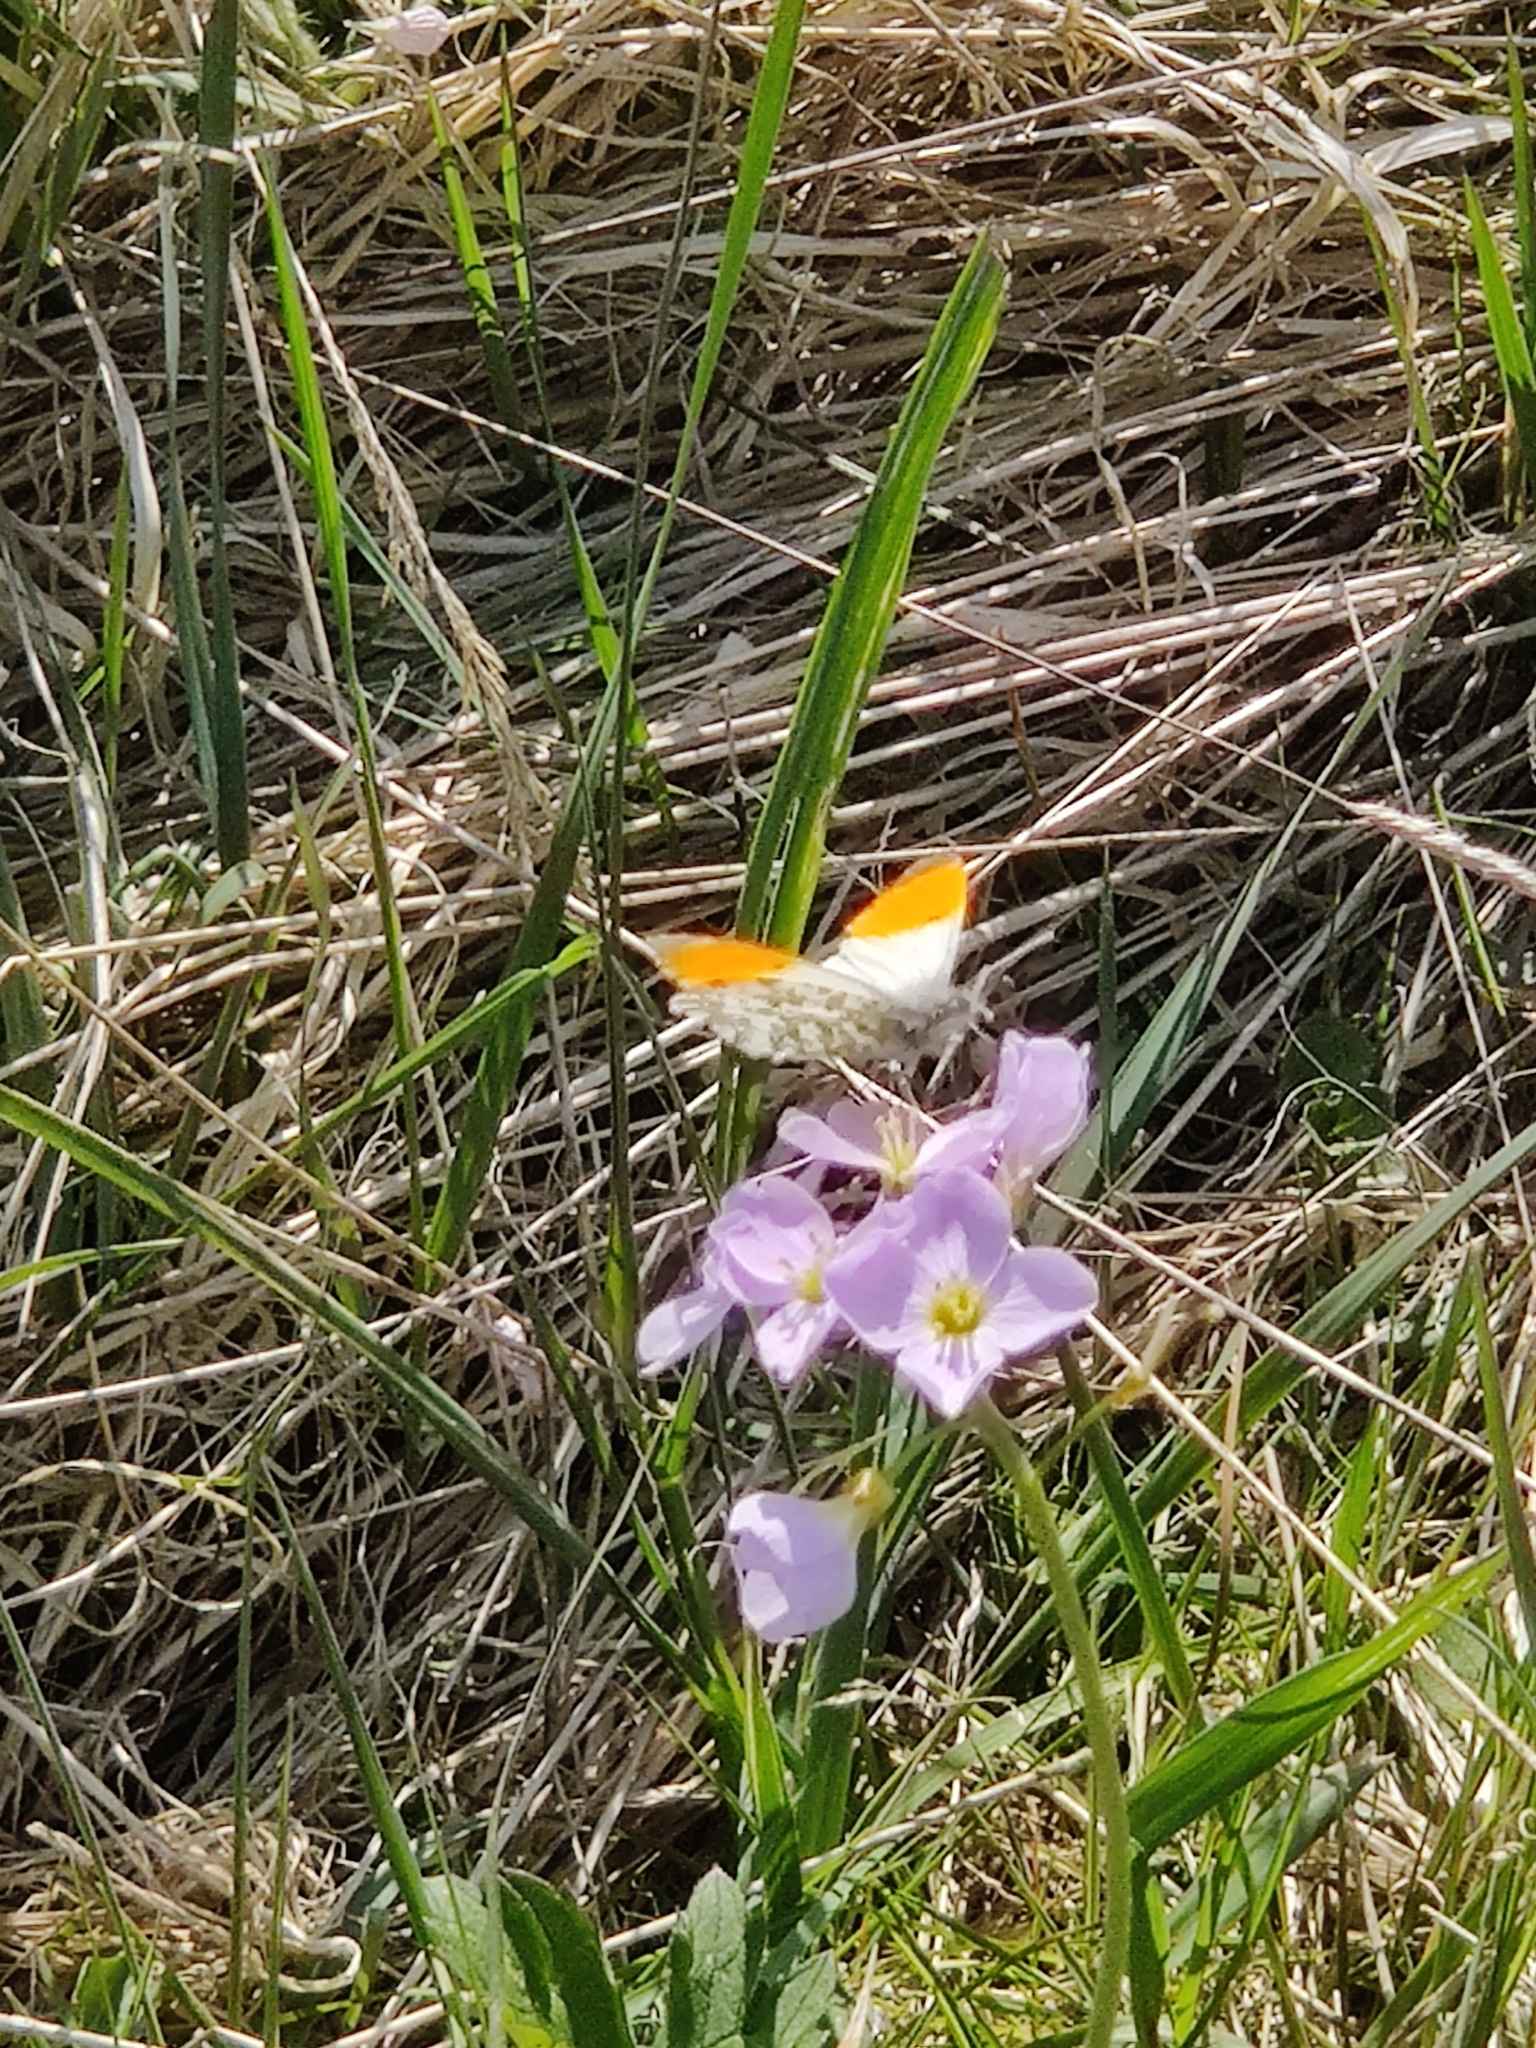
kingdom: Animalia
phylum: Arthropoda
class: Insecta
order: Lepidoptera
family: Pieridae
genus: Anthocharis
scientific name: Anthocharis cardamines
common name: Orange-tip
